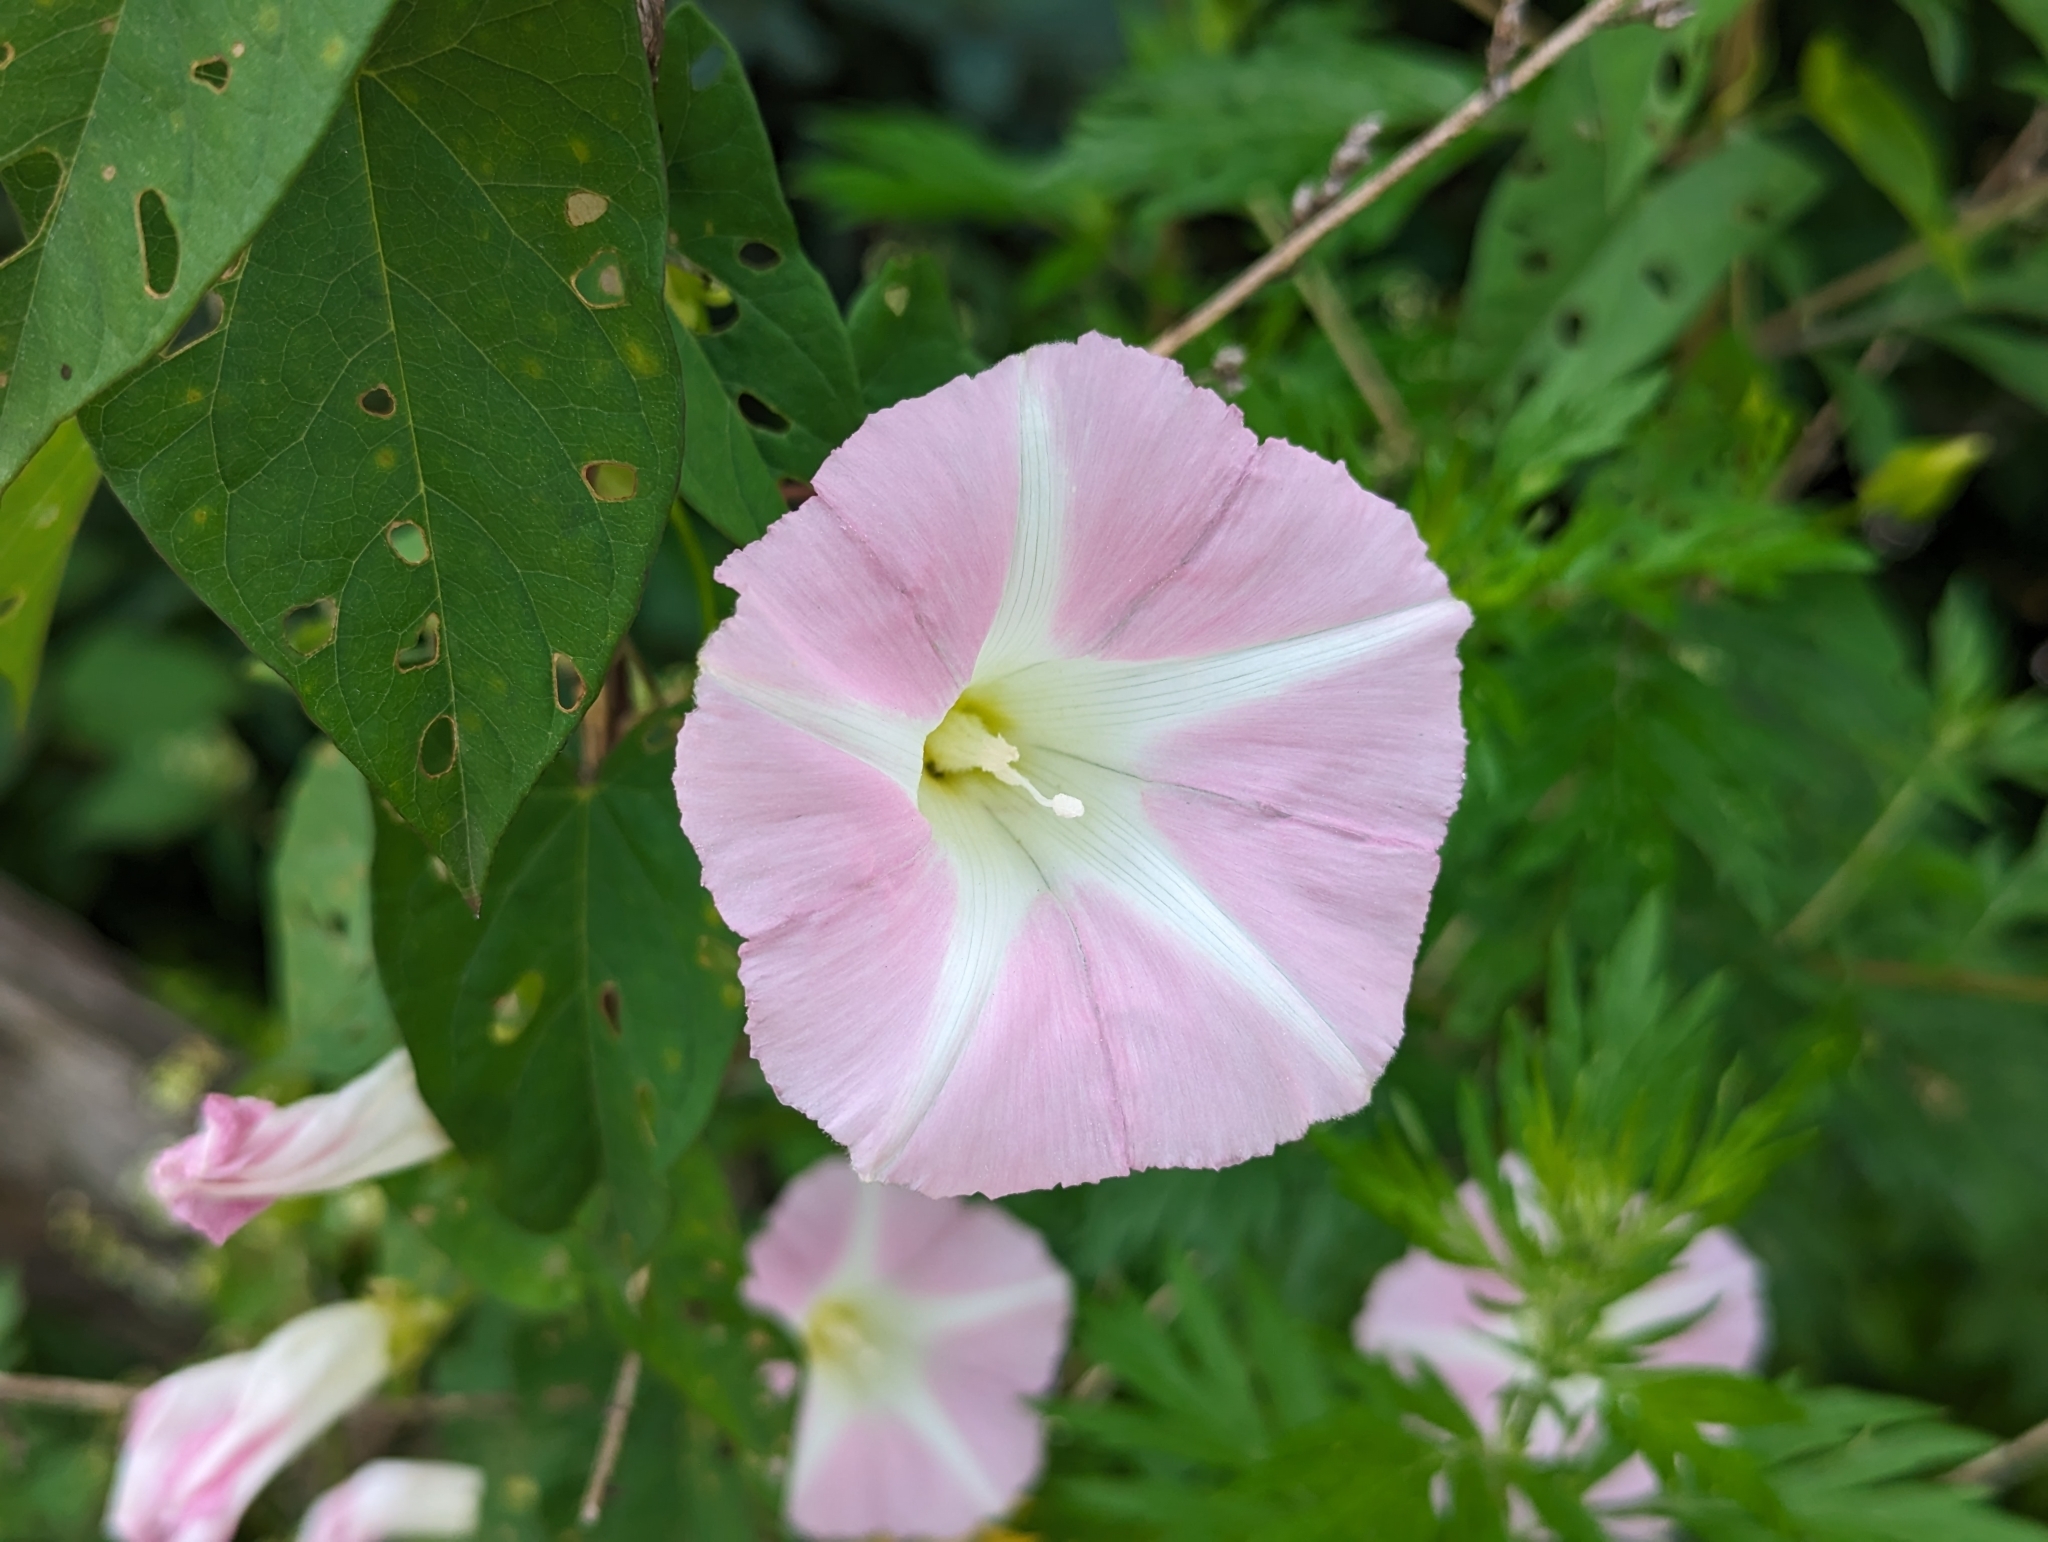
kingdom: Plantae
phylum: Tracheophyta
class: Magnoliopsida
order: Solanales
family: Convolvulaceae
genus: Calystegia
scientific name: Calystegia sepium
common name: Hedge bindweed
